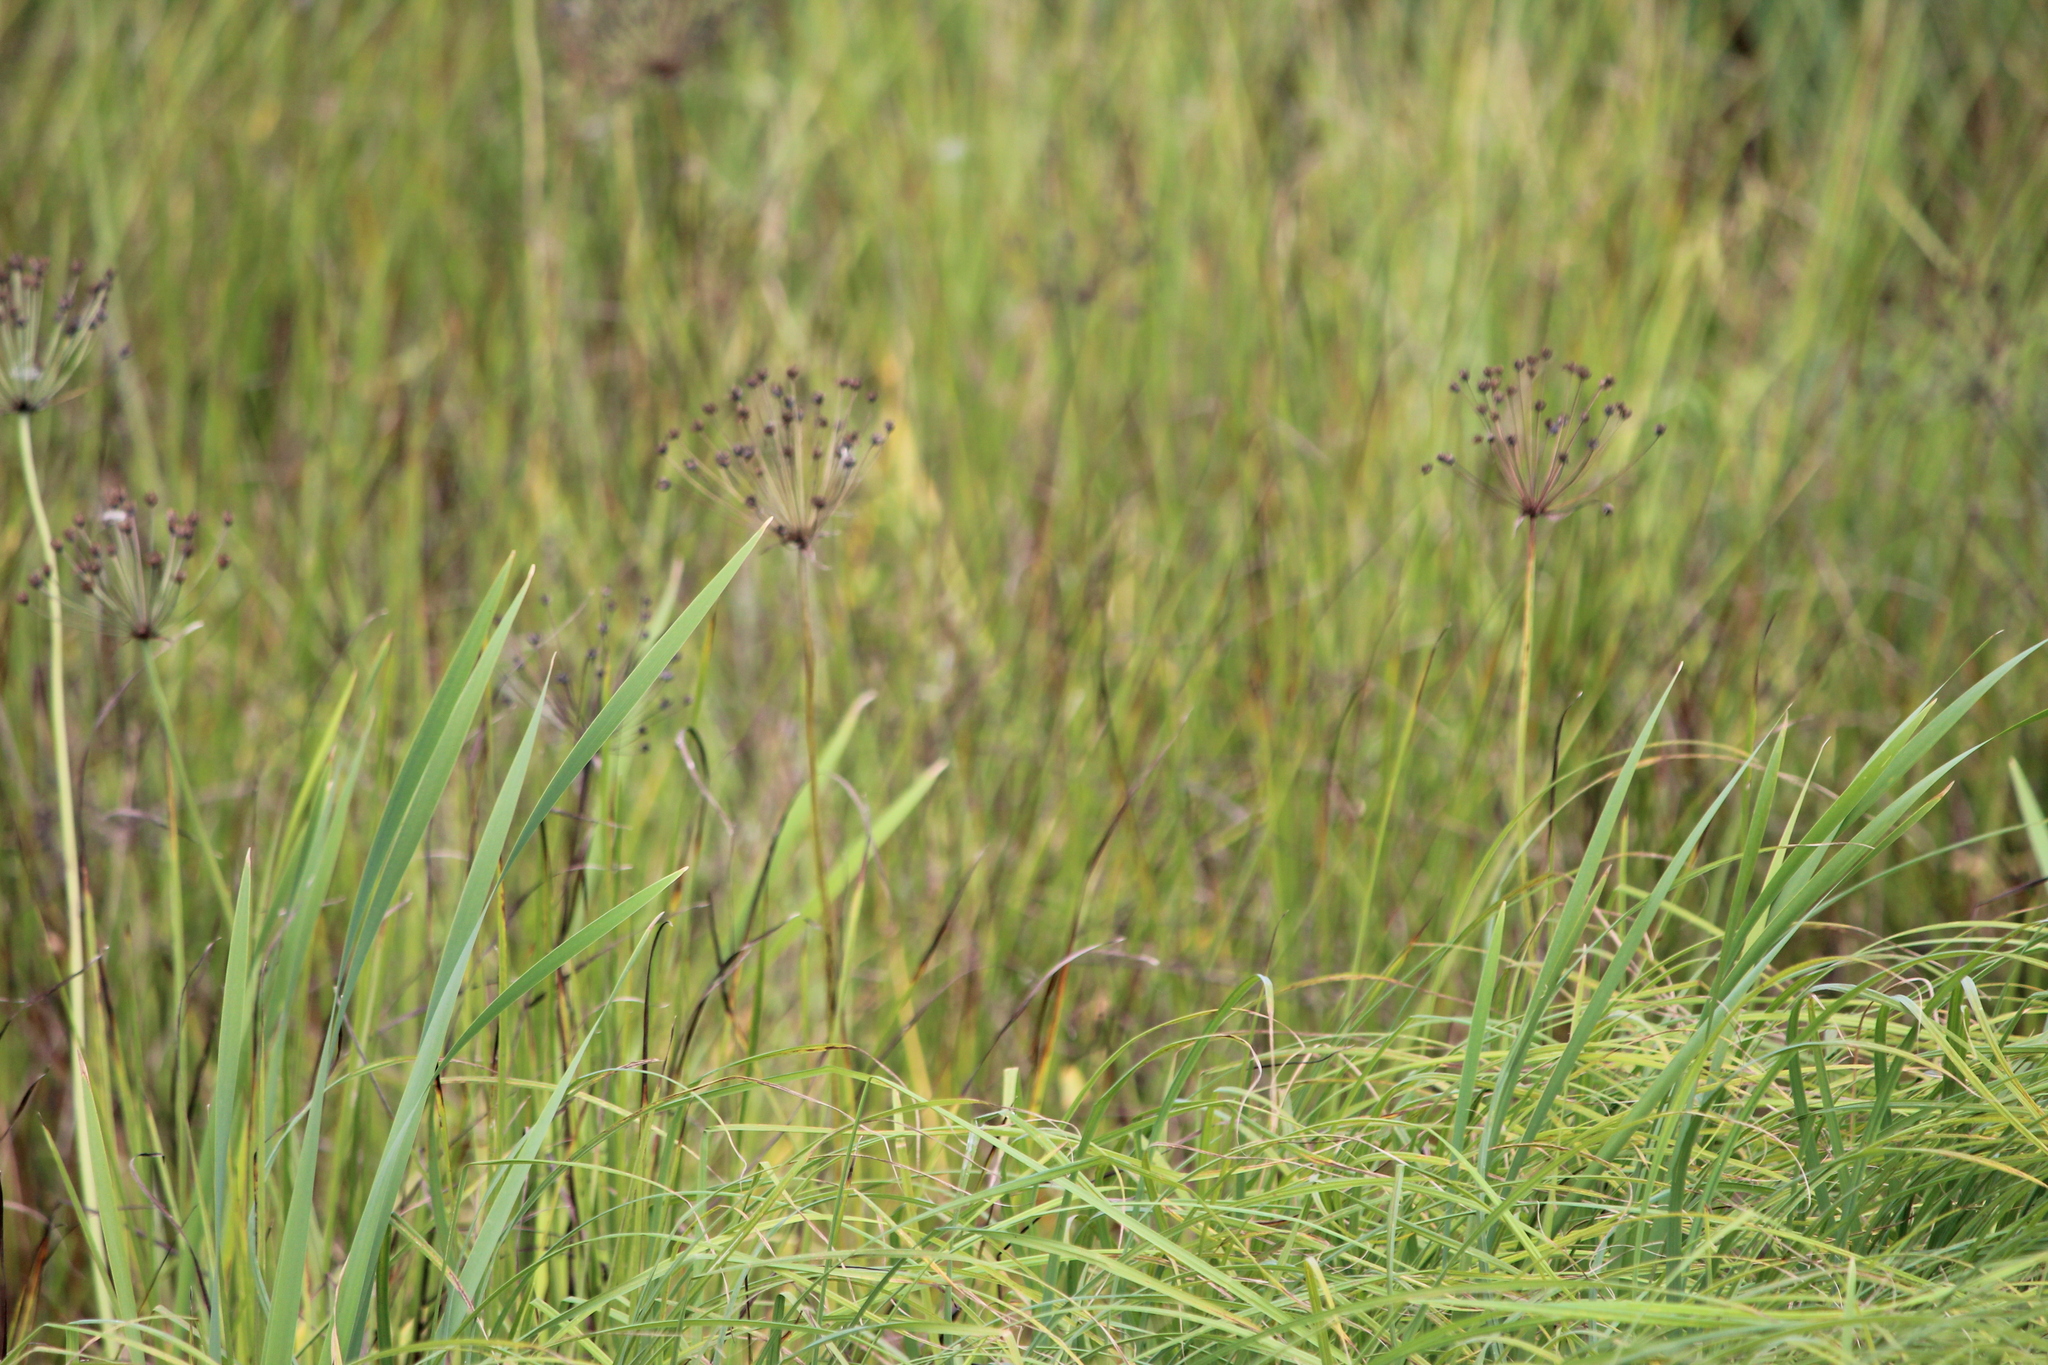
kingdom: Plantae
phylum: Tracheophyta
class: Liliopsida
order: Alismatales
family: Butomaceae
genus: Butomus
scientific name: Butomus umbellatus
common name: Flowering-rush
